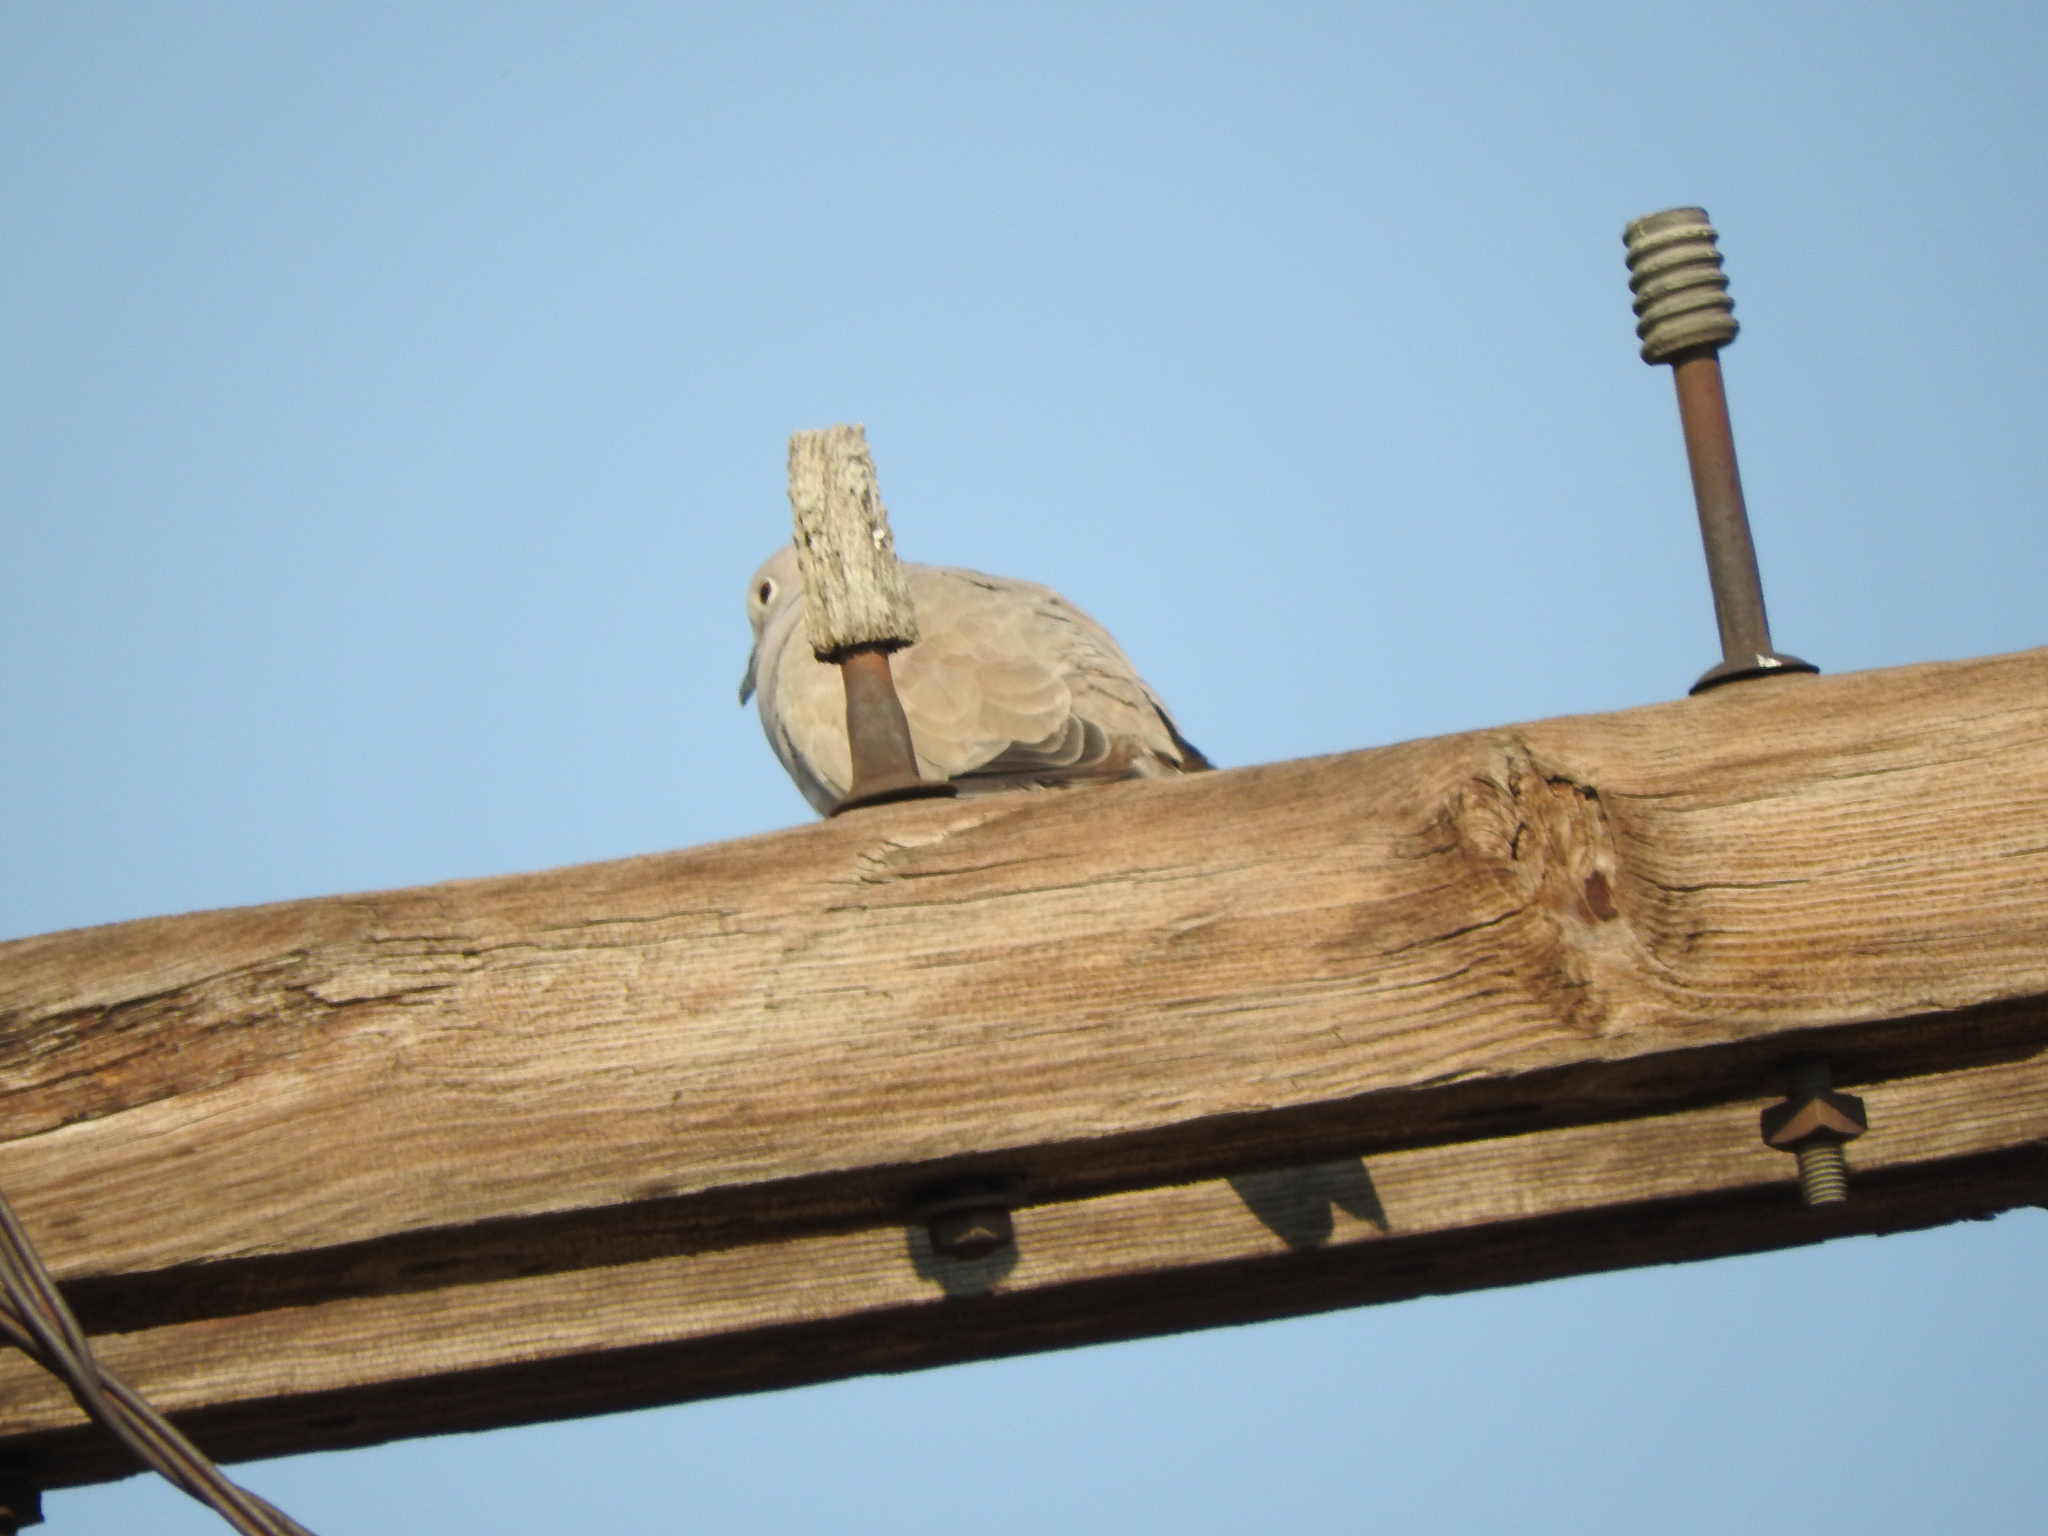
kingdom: Animalia
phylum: Chordata
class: Aves
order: Columbiformes
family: Columbidae
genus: Streptopelia
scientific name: Streptopelia decaocto
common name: Eurasian collared dove
